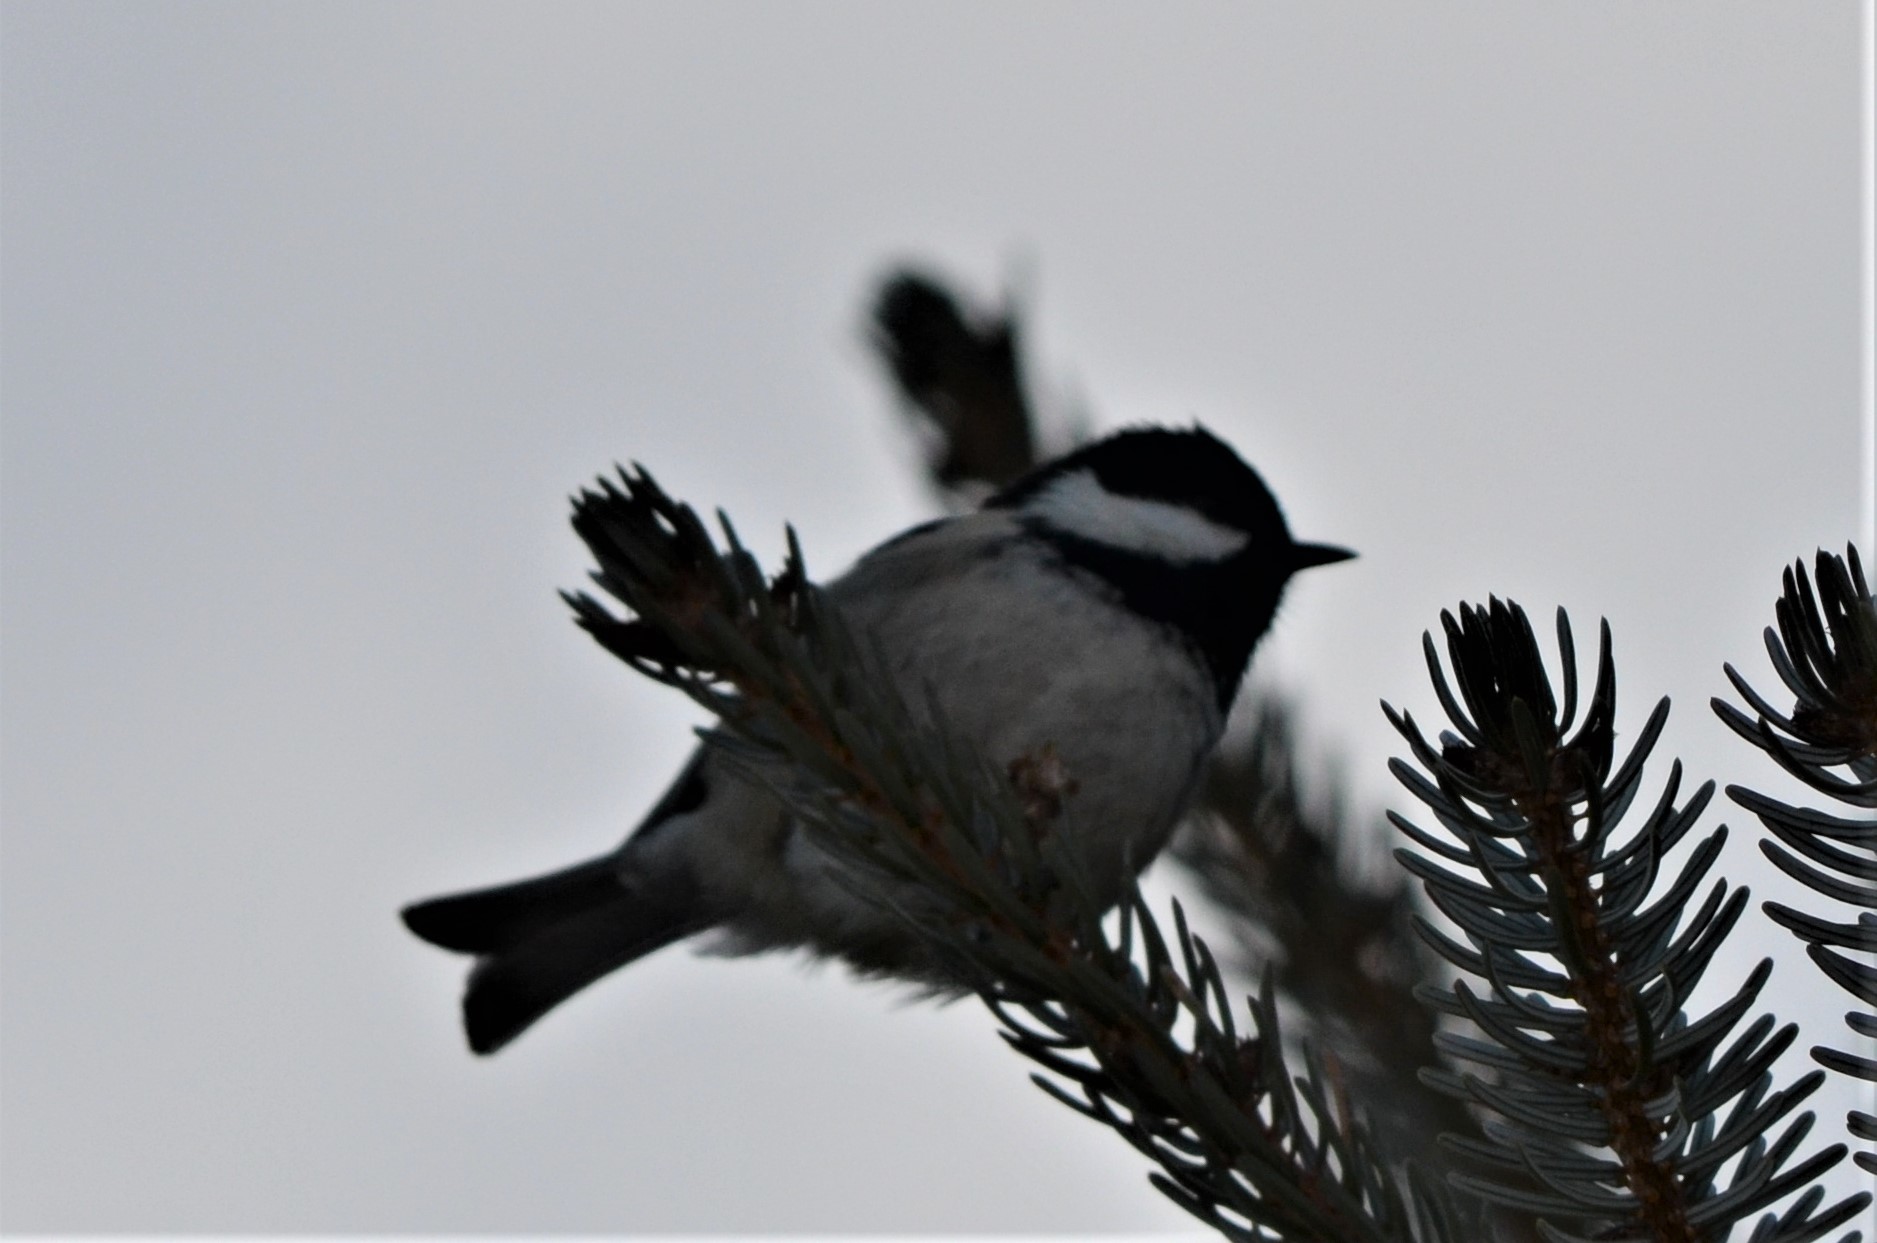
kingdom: Animalia
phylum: Chordata
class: Aves
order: Passeriformes
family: Paridae
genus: Periparus
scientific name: Periparus ater
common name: Coal tit
